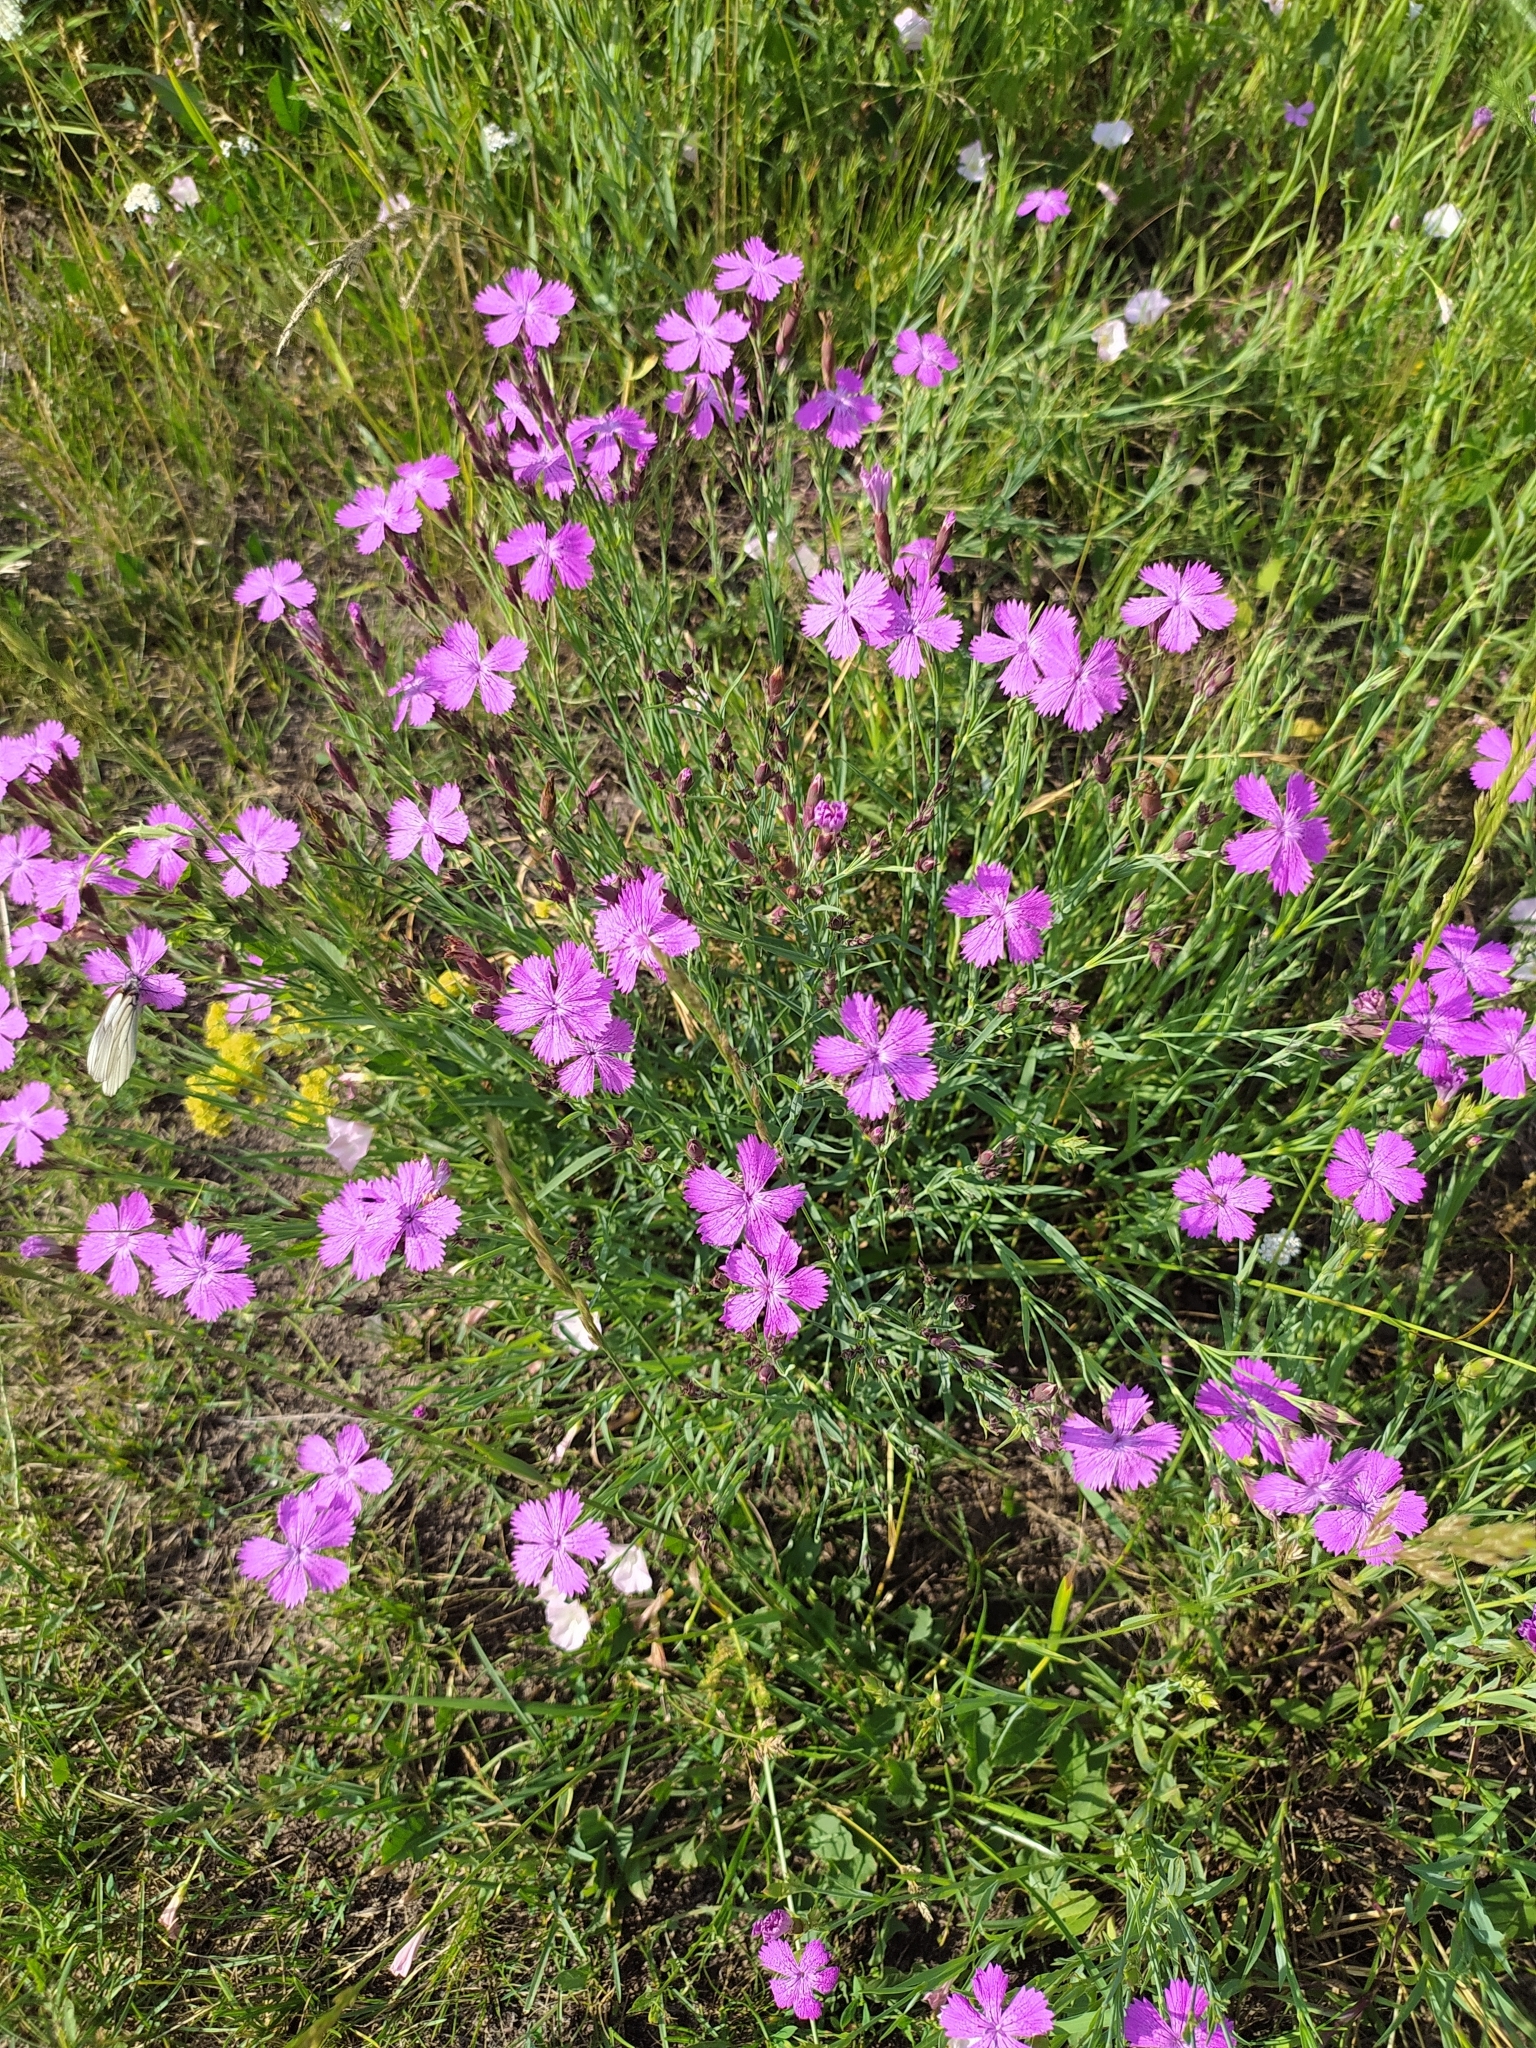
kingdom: Plantae
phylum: Tracheophyta
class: Magnoliopsida
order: Caryophyllales
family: Caryophyllaceae
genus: Dianthus
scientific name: Dianthus chinensis
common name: Rainbow pink
